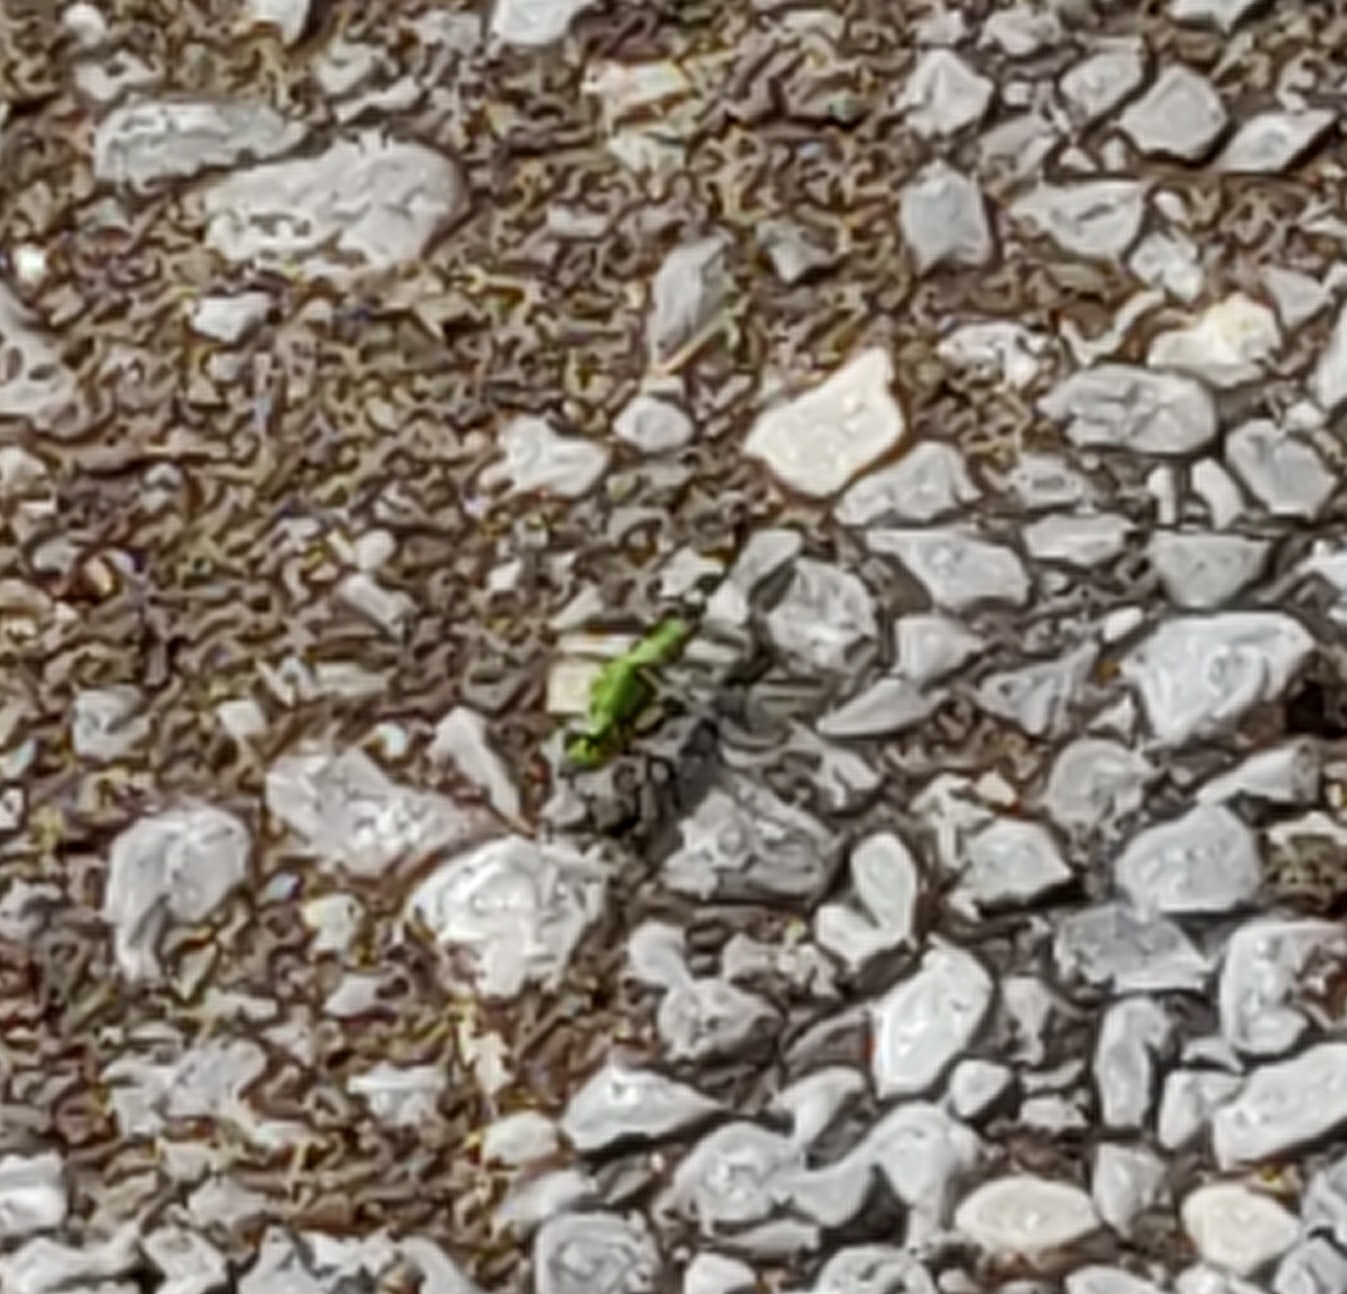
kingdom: Animalia
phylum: Arthropoda
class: Insecta
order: Odonata
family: Libellulidae
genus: Erythemis
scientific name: Erythemis simplicicollis
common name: Eastern pondhawk
